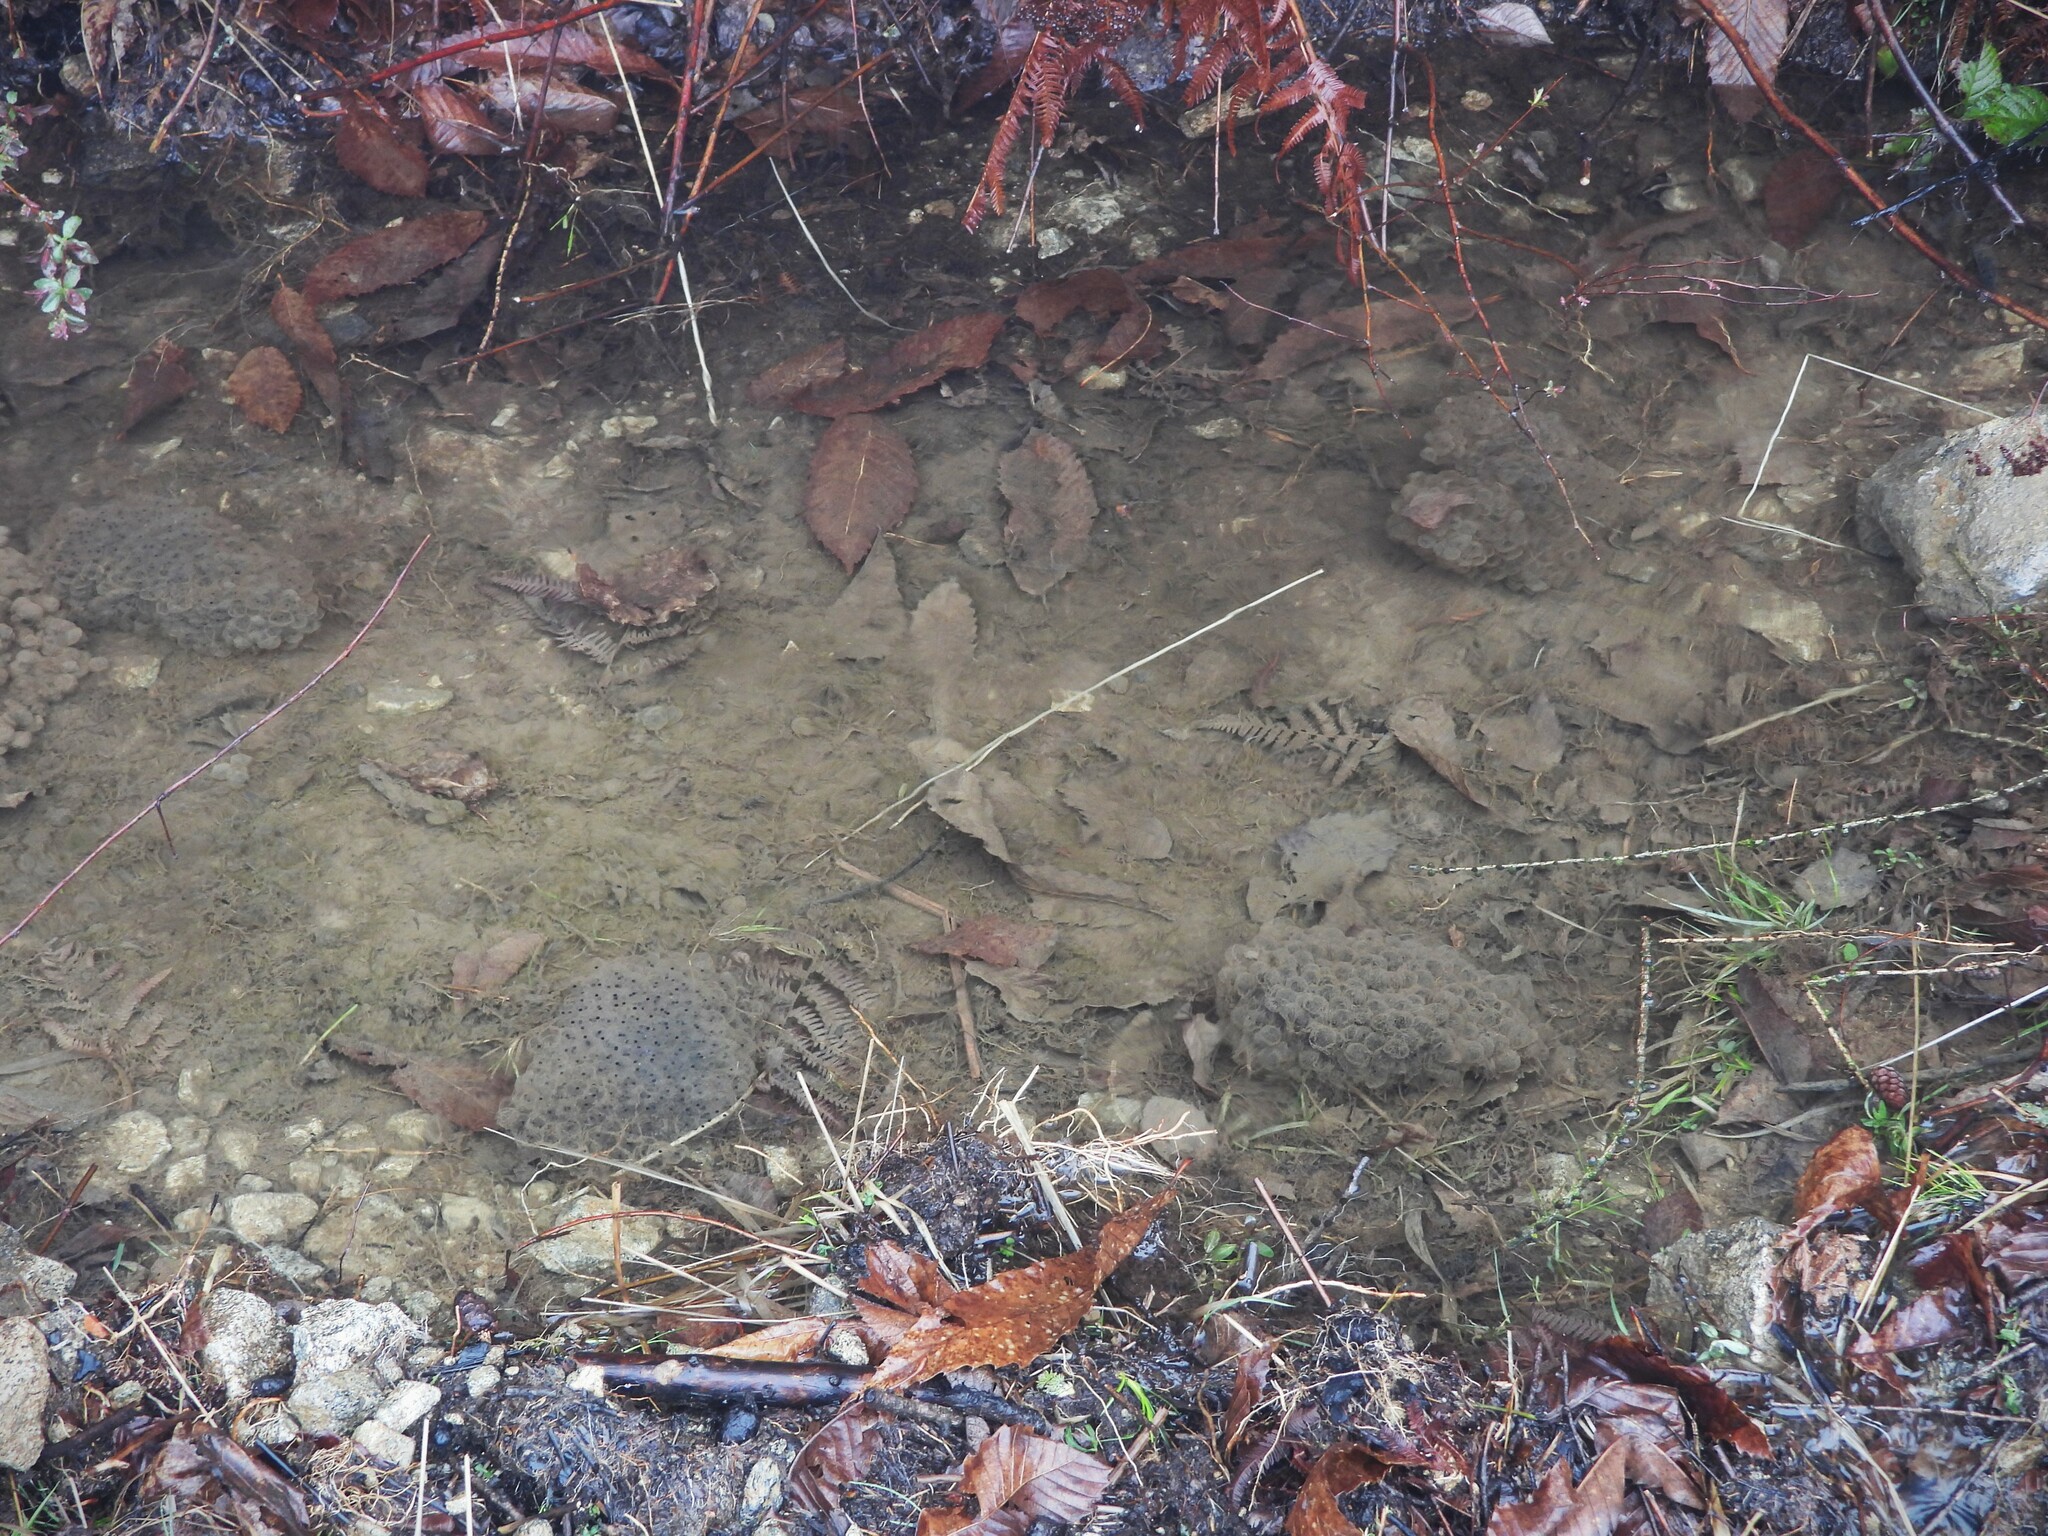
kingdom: Animalia
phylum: Chordata
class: Amphibia
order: Anura
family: Ranidae
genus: Rana
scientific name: Rana temporaria
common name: Common frog
